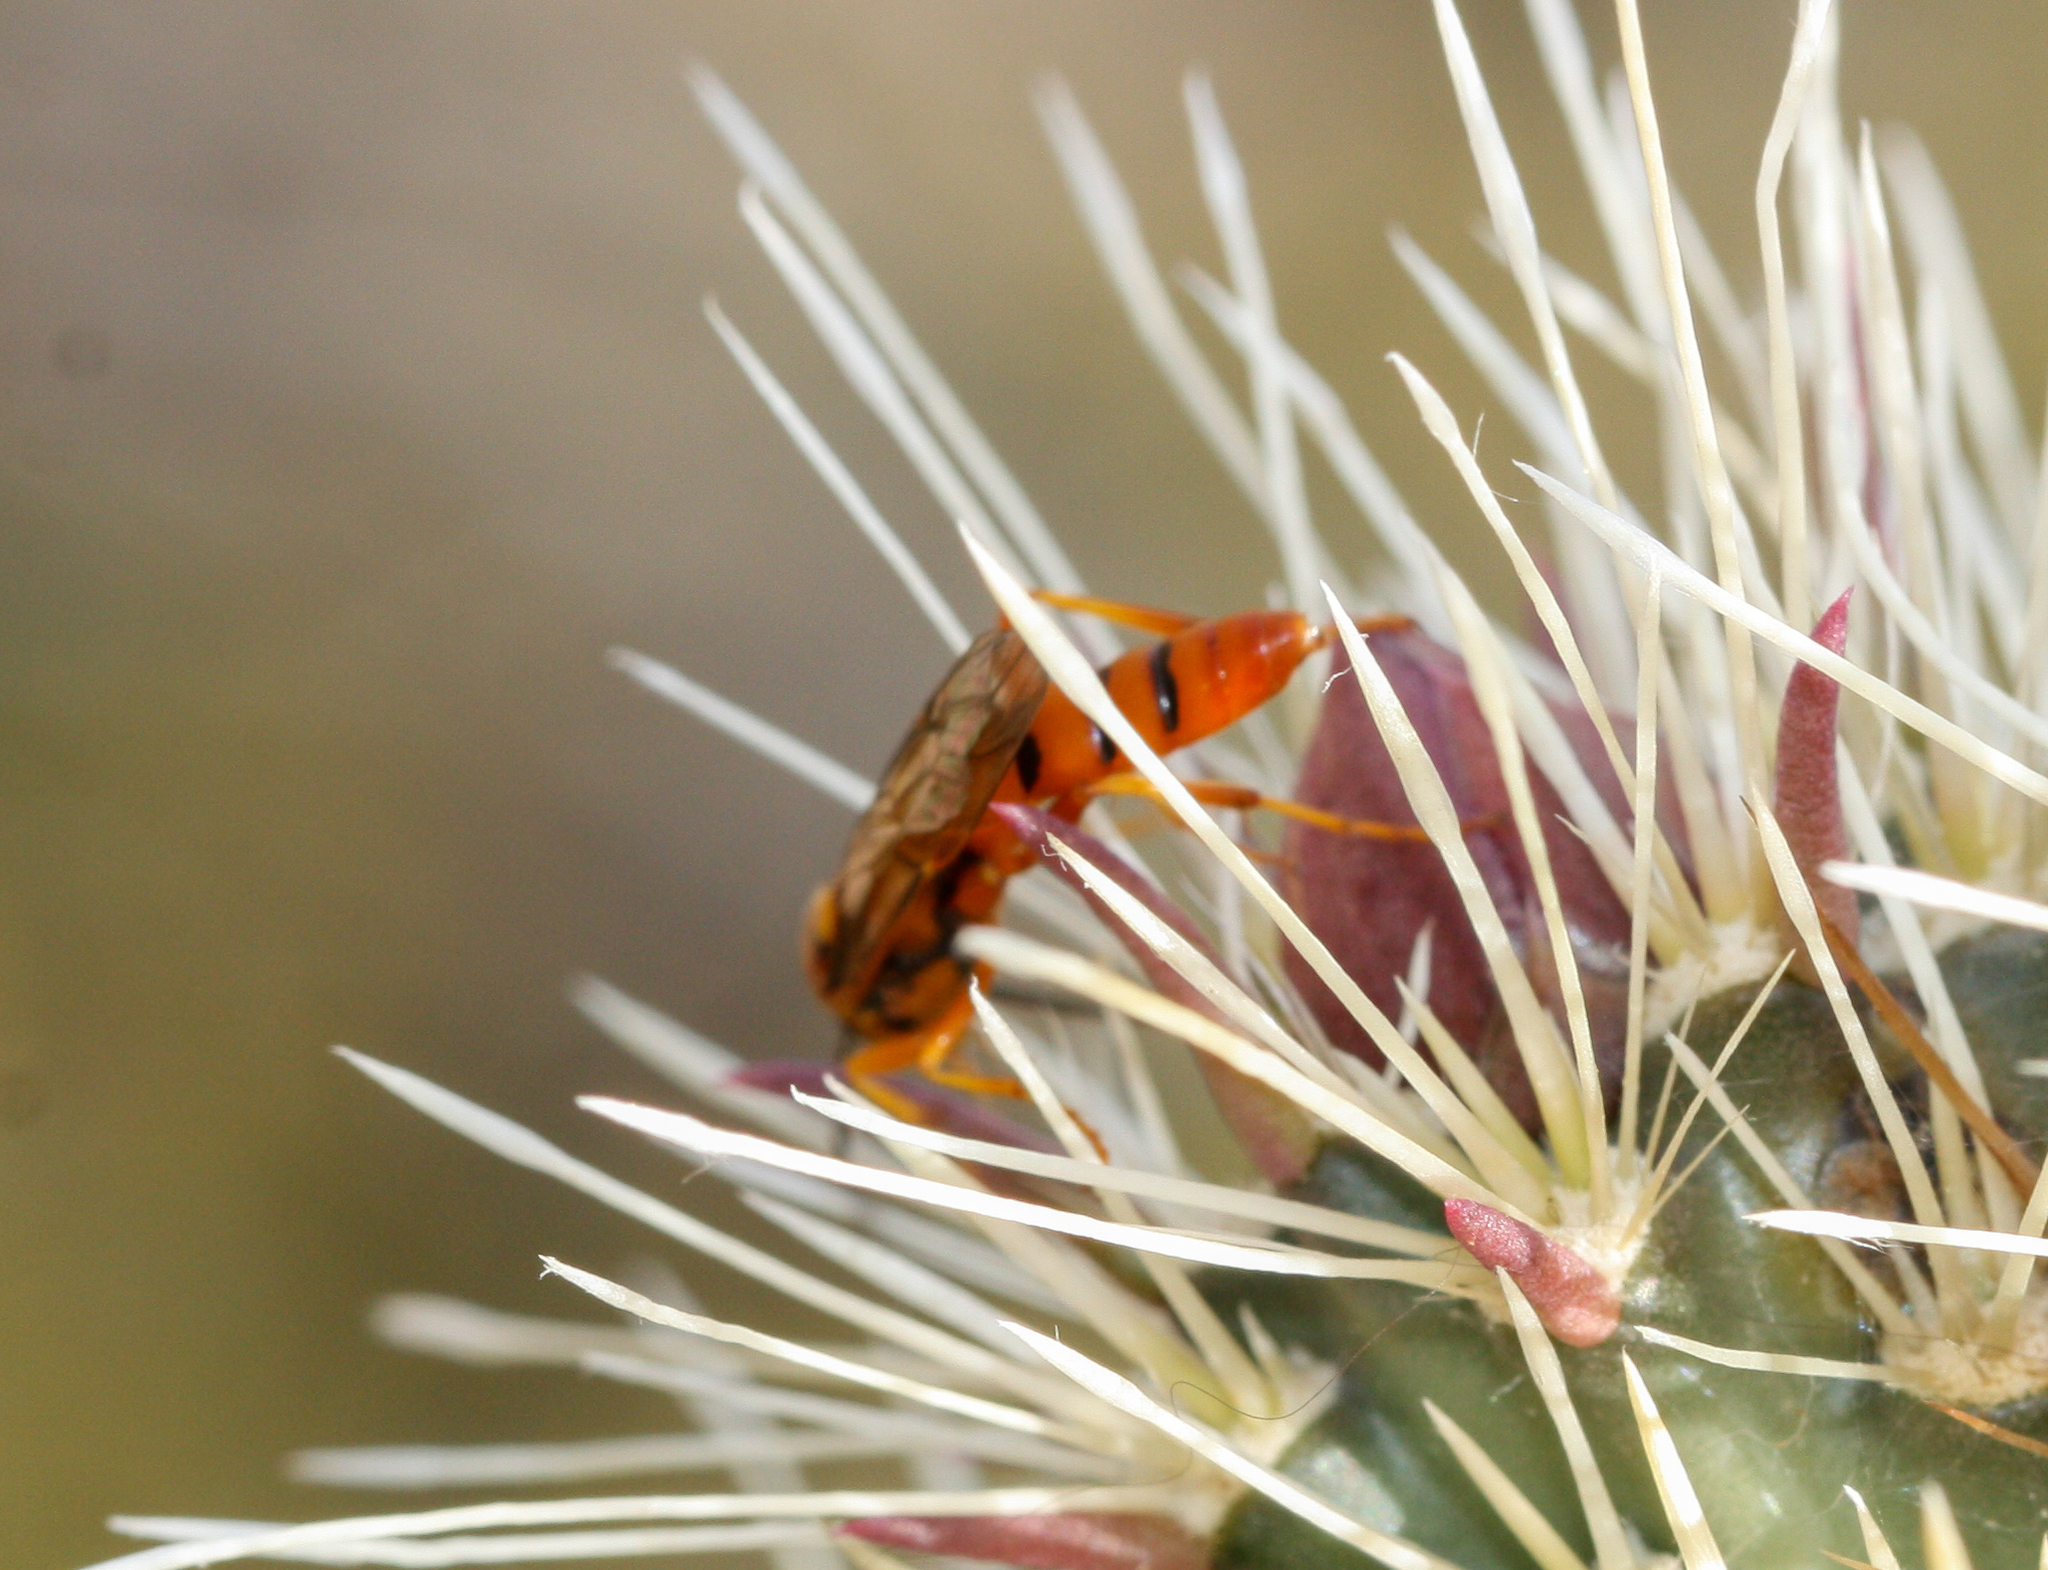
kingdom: Animalia
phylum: Arthropoda
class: Insecta
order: Hymenoptera
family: Ichneumonidae
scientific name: Ichneumonidae
